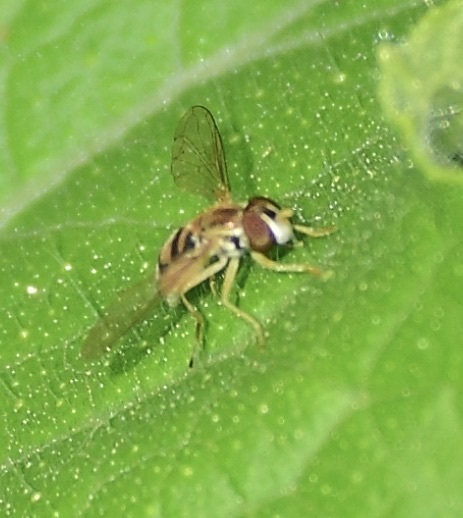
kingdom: Animalia
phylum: Arthropoda
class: Insecta
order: Diptera
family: Syrphidae
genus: Toxomerus
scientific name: Toxomerus marginatus
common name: Syrphid fly
